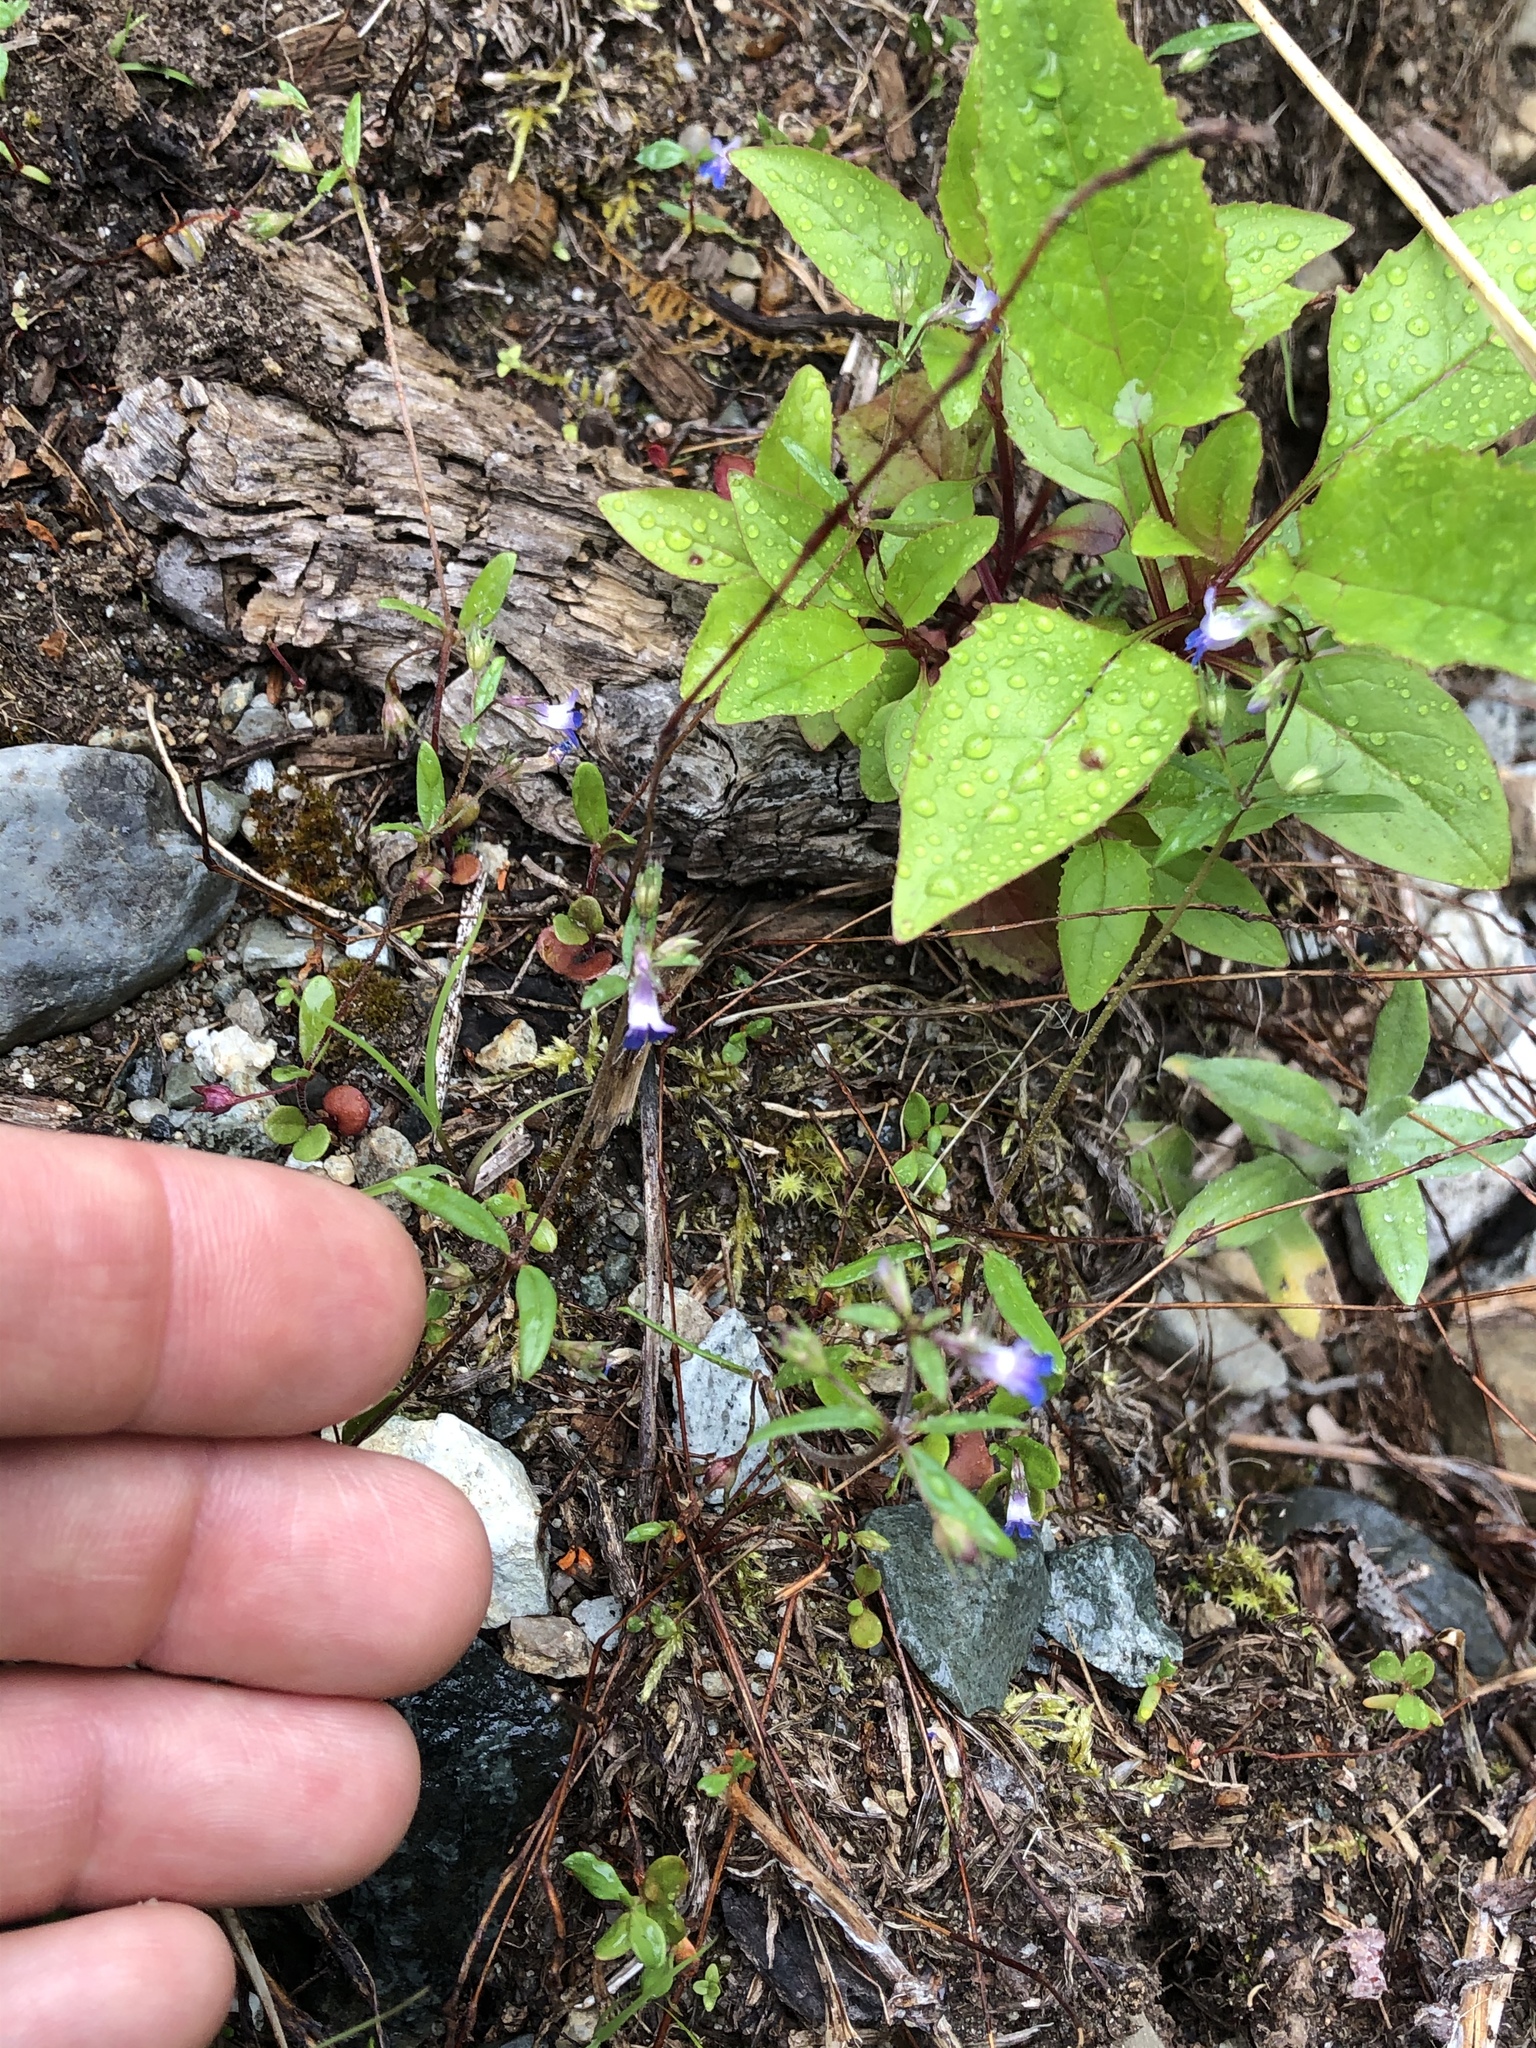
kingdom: Plantae
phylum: Tracheophyta
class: Magnoliopsida
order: Lamiales
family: Plantaginaceae
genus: Collinsia
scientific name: Collinsia parviflora
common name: Blue-lips
